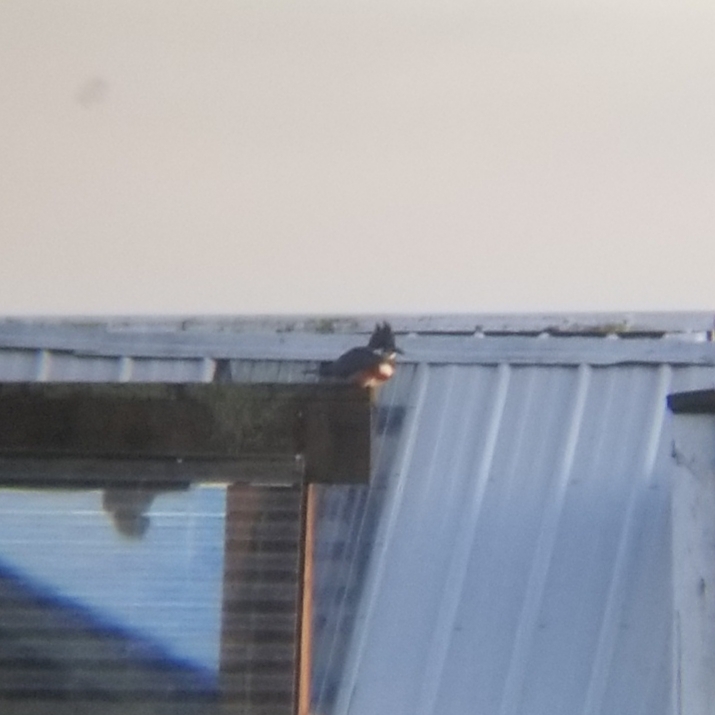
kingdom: Animalia
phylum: Chordata
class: Aves
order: Coraciiformes
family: Alcedinidae
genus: Megaceryle
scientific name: Megaceryle alcyon
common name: Belted kingfisher
